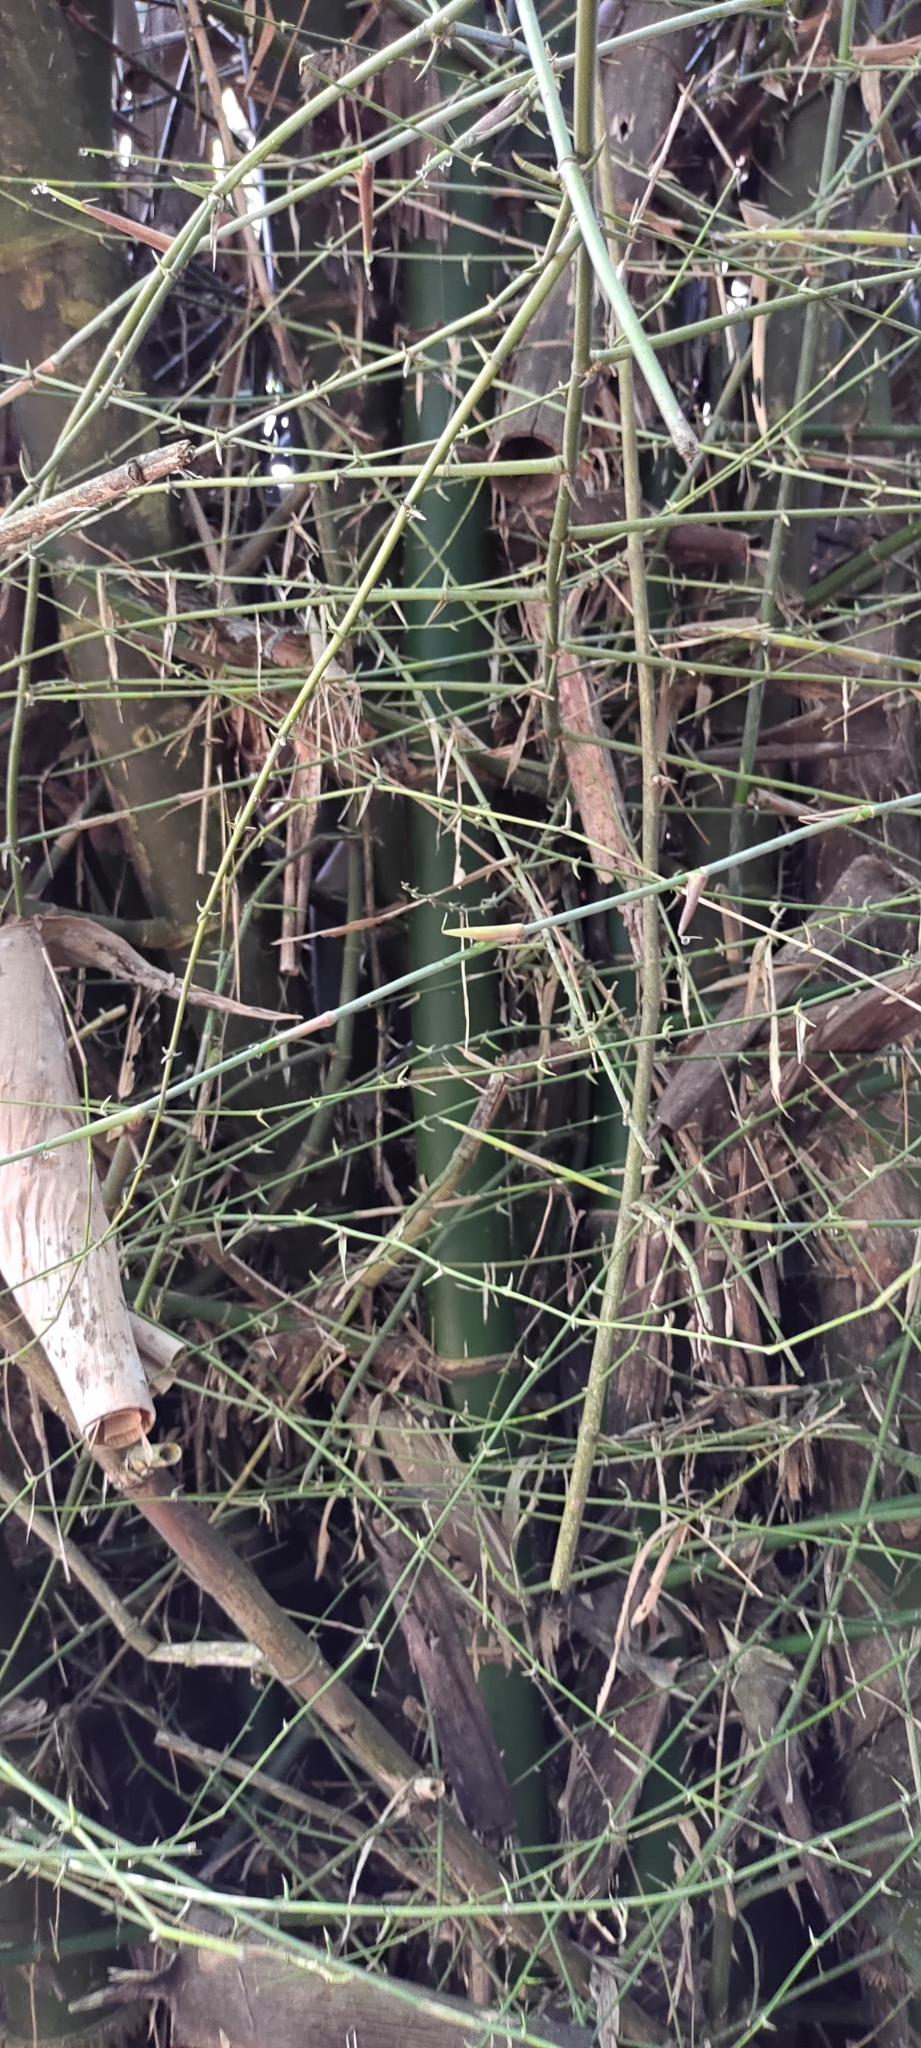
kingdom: Plantae
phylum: Tracheophyta
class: Liliopsida
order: Poales
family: Poaceae
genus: Bambusa
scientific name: Bambusa spinosa
